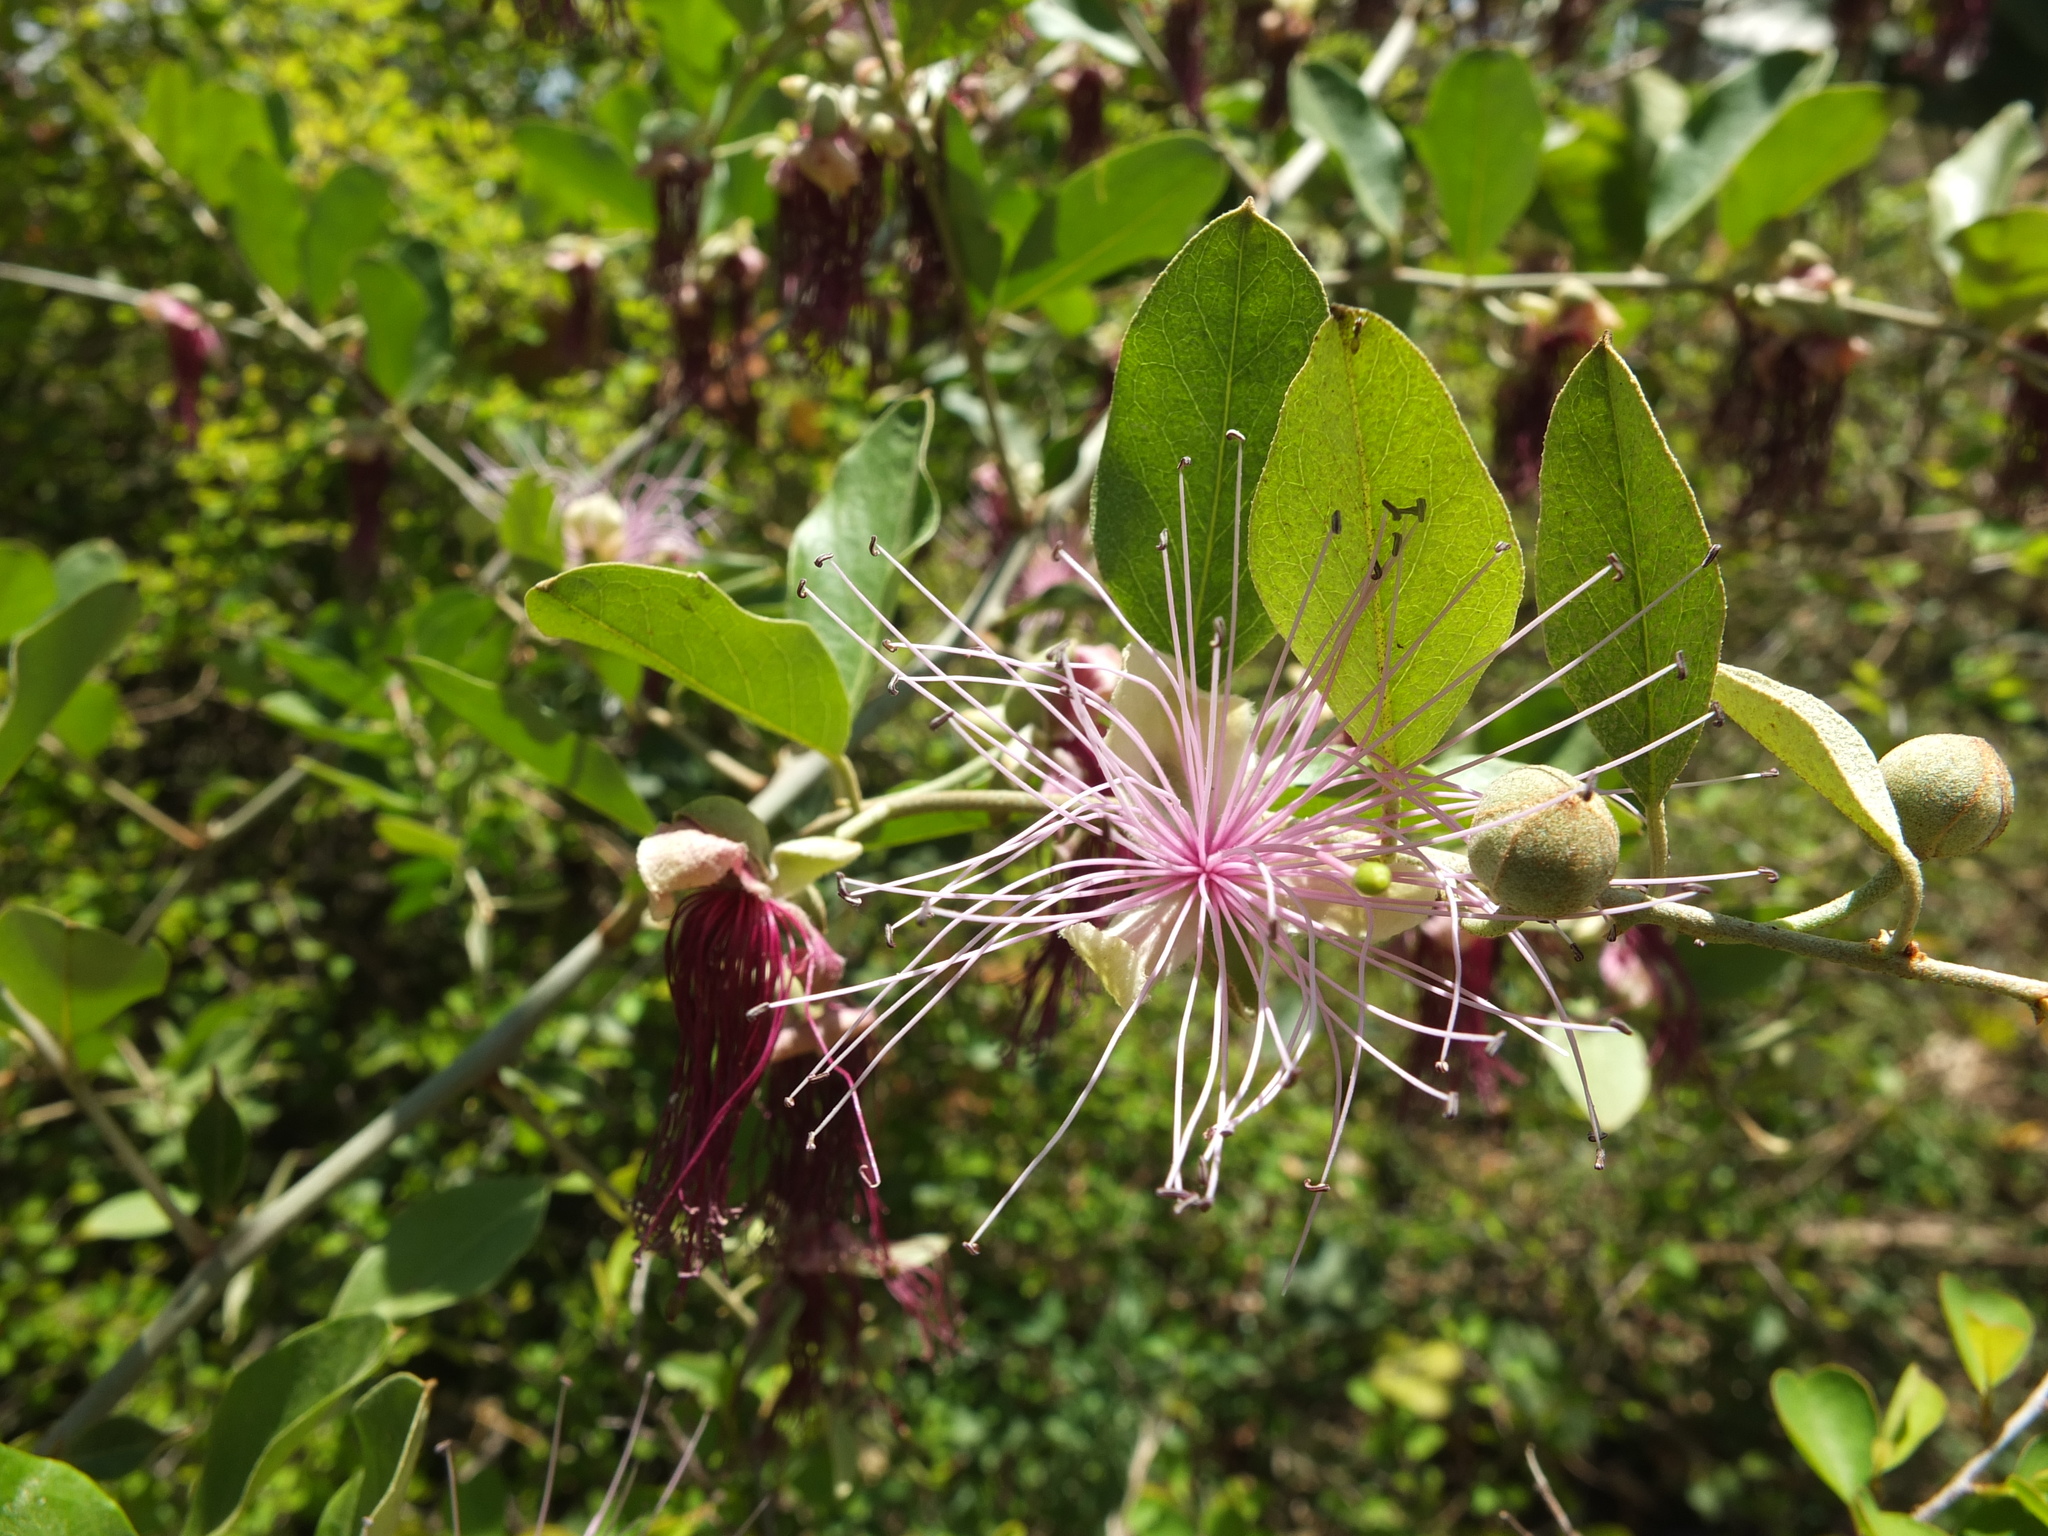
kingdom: Plantae
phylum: Tracheophyta
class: Magnoliopsida
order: Brassicales
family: Capparaceae
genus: Capparis
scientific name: Capparis zeylanica
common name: Ceylon caper
